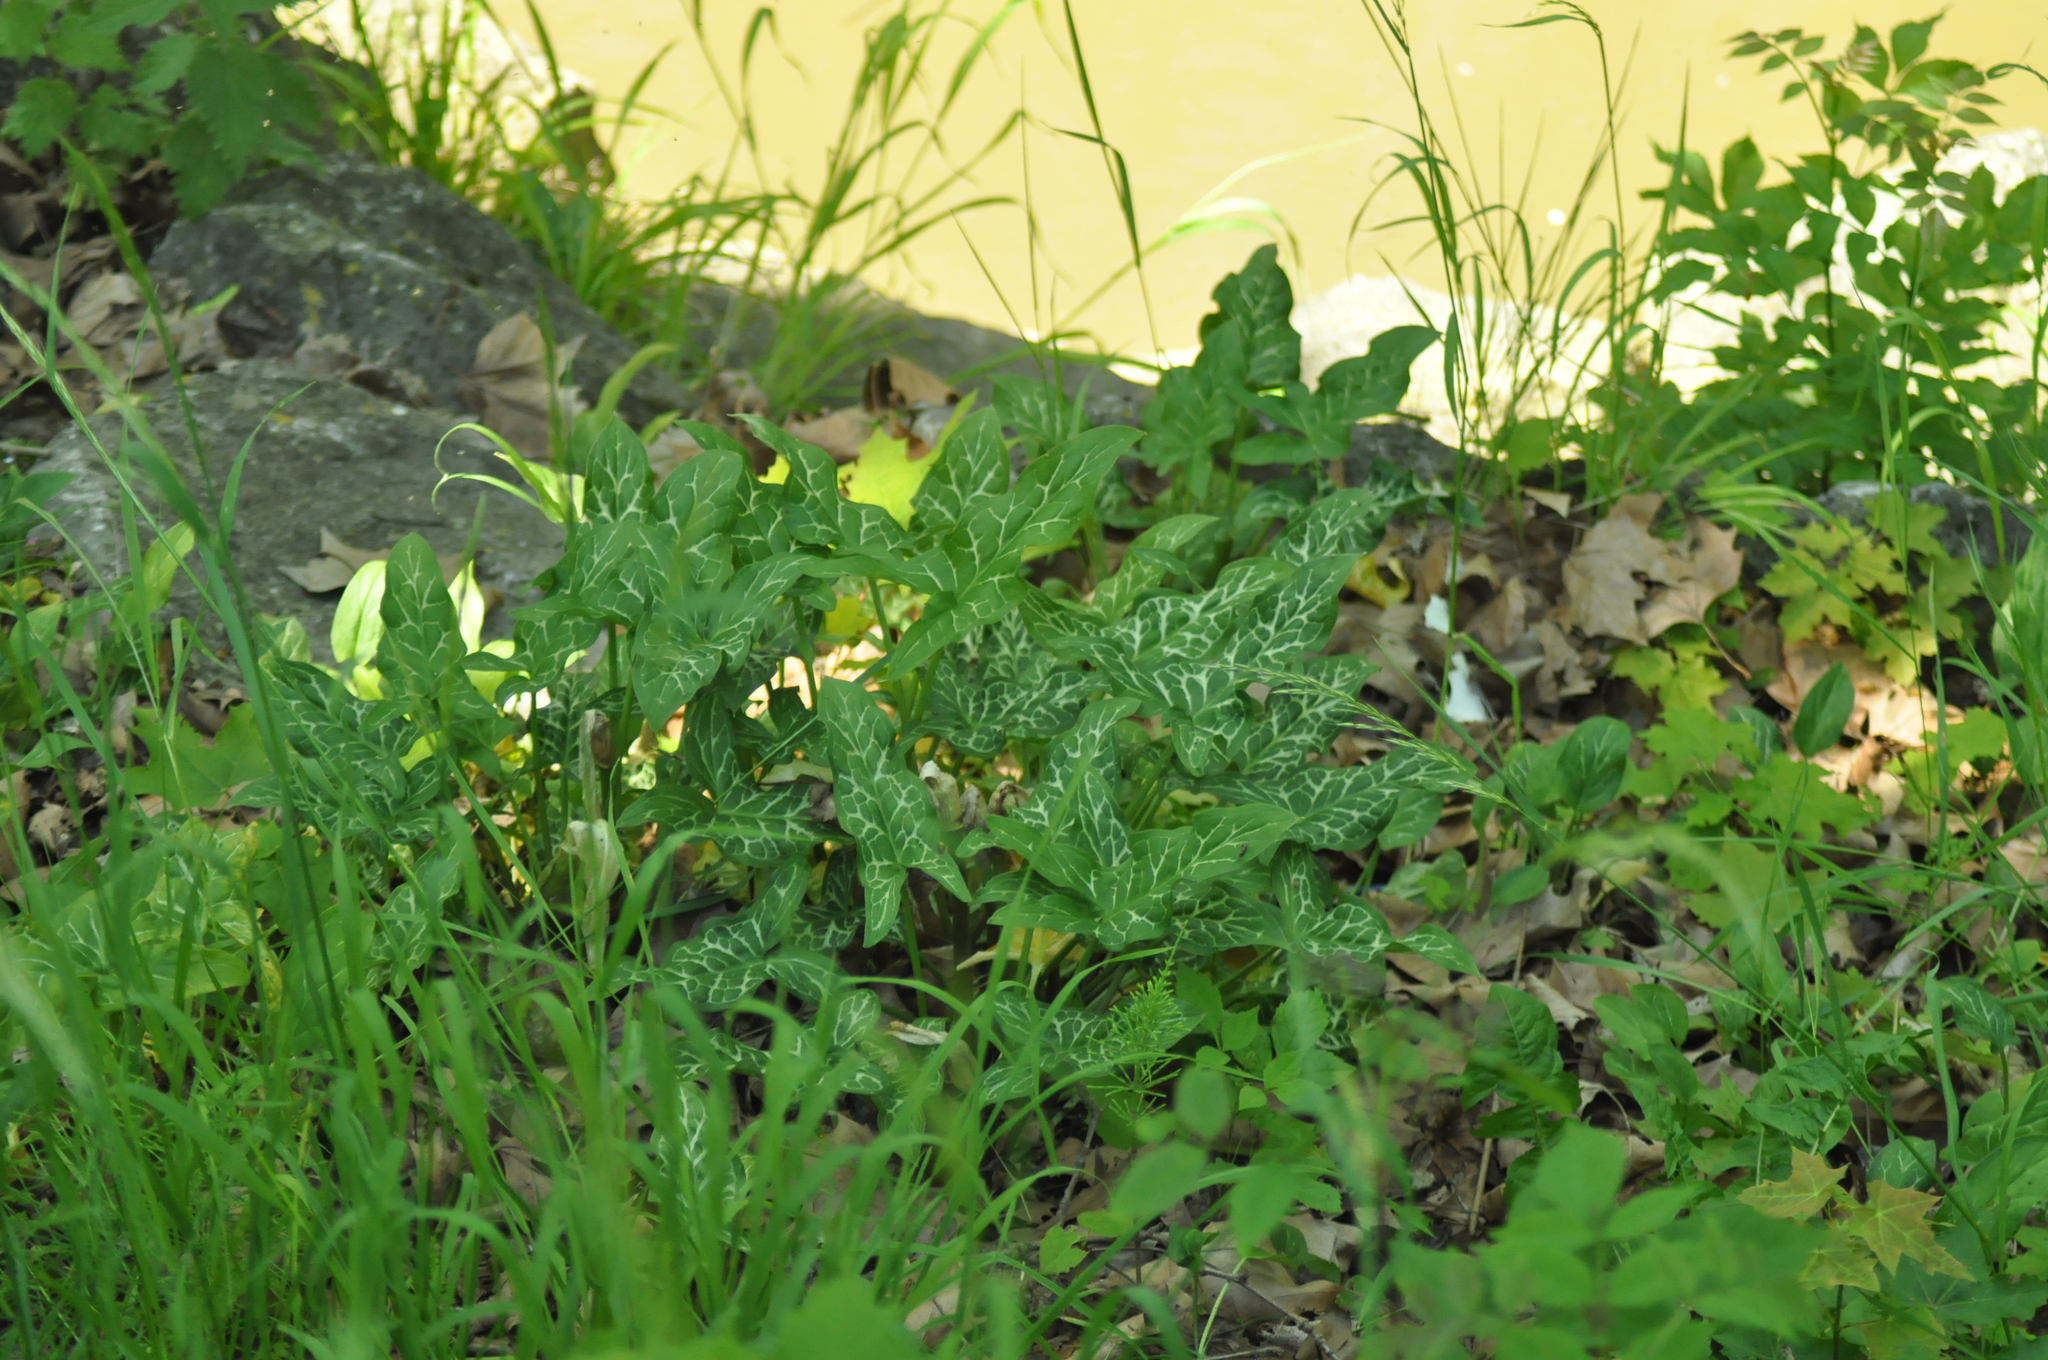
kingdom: Plantae
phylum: Tracheophyta
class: Liliopsida
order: Alismatales
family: Araceae
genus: Arum
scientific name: Arum italicum
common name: Italian lords-and-ladies
